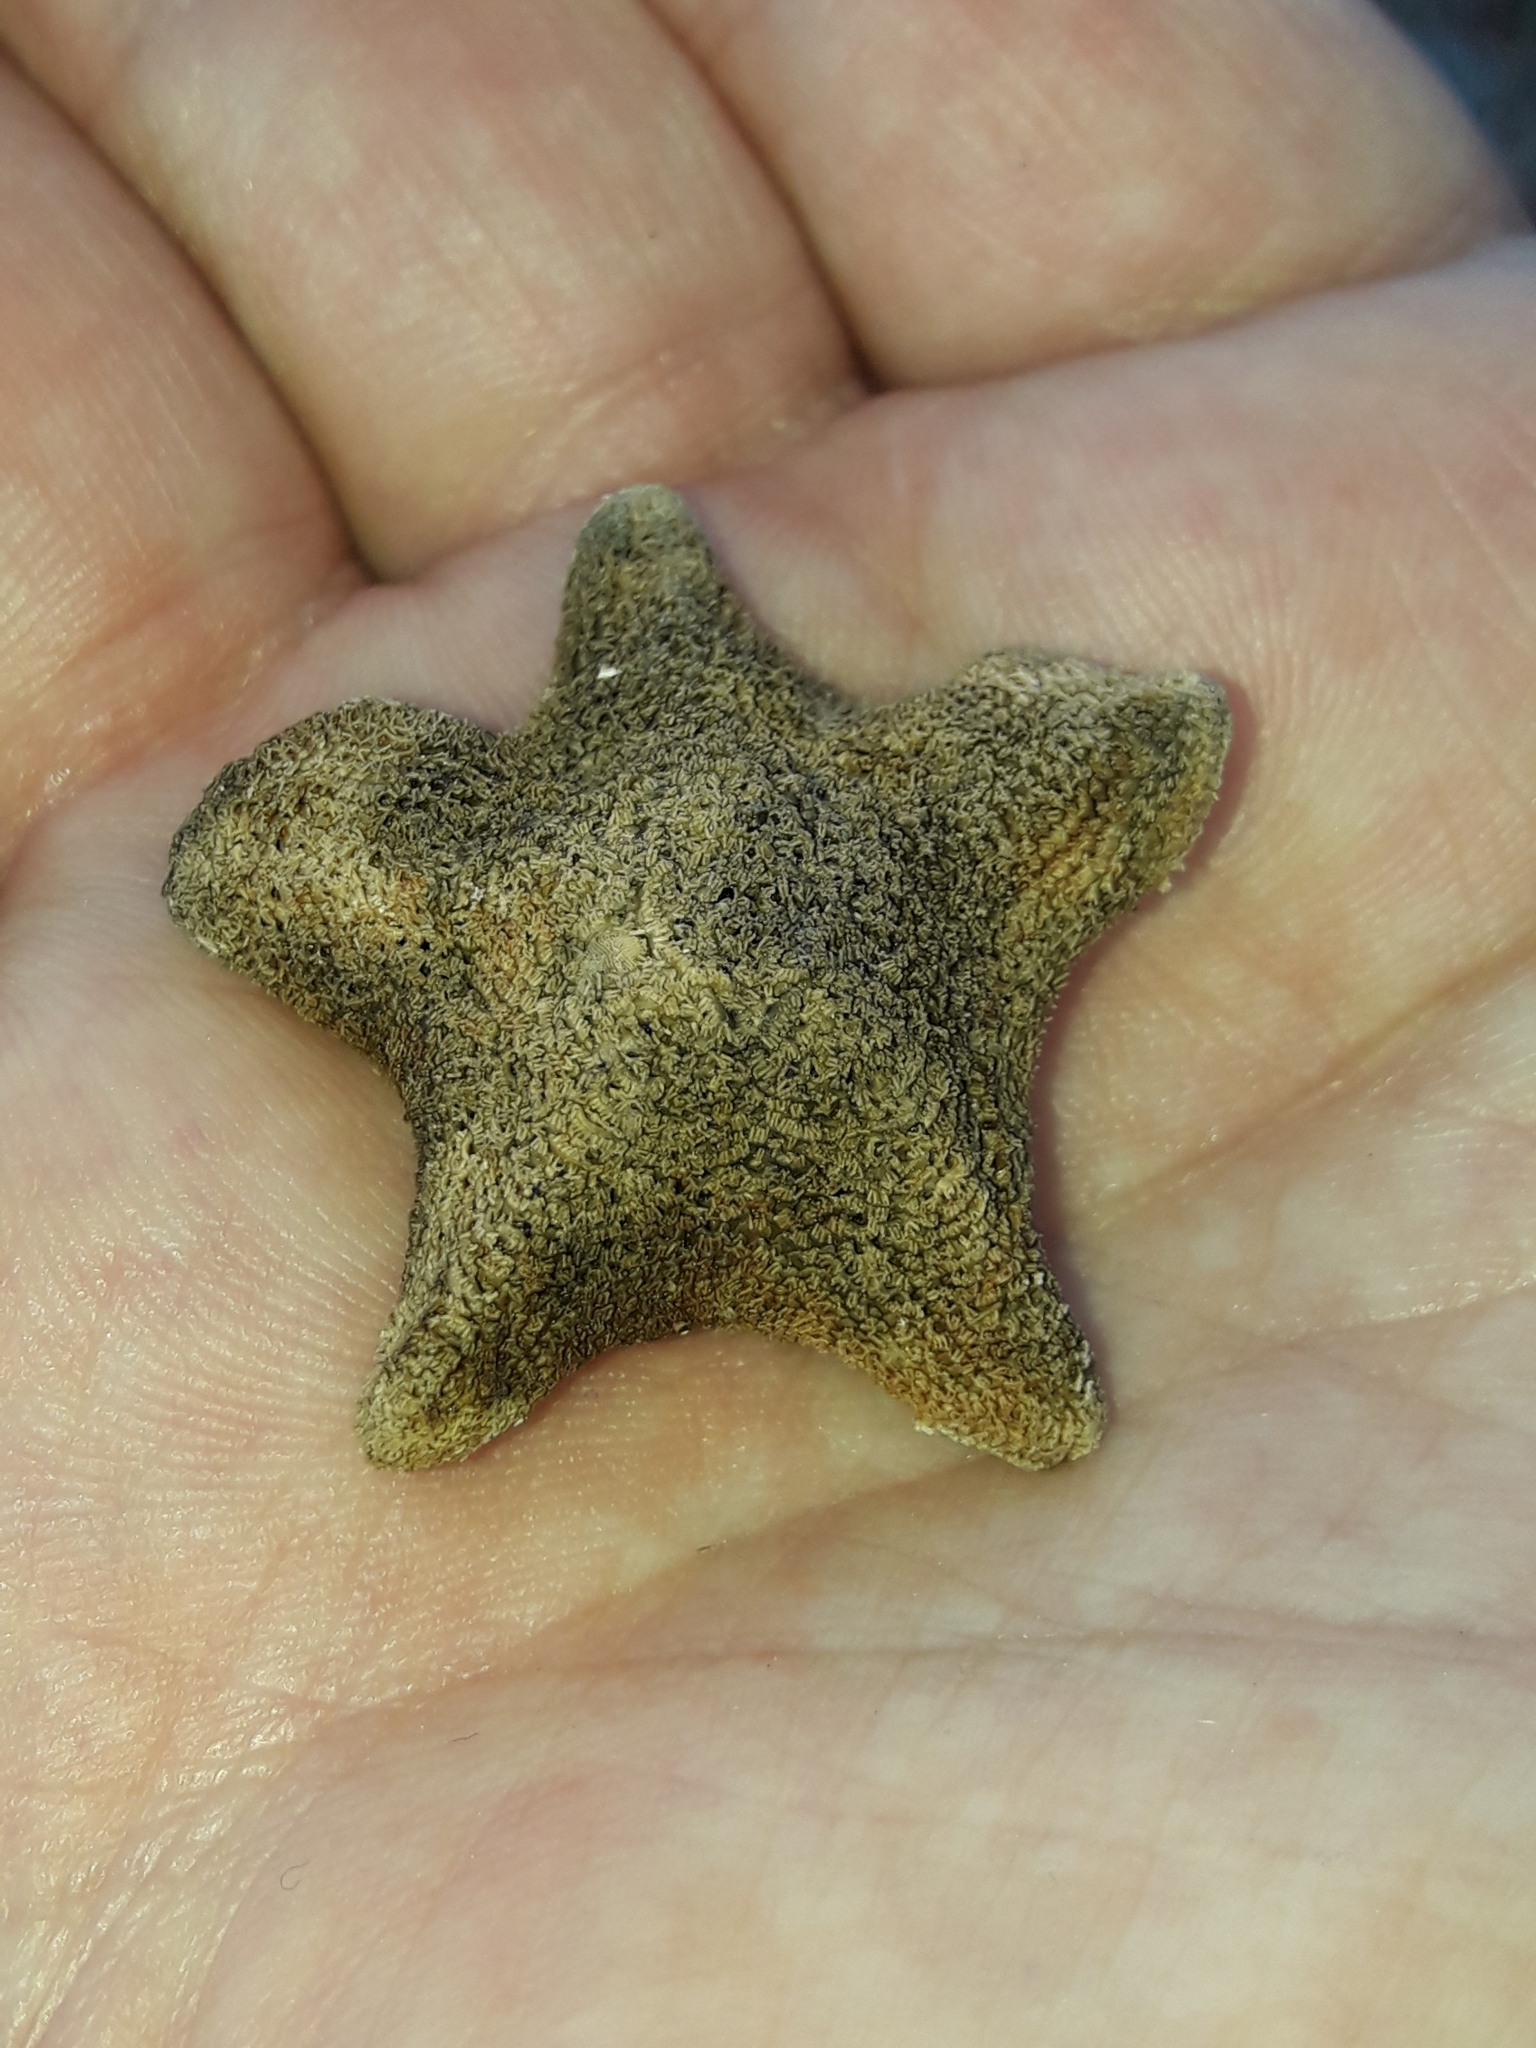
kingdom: Animalia
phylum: Echinodermata
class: Asteroidea
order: Valvatida
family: Asterinidae
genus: Patiriella
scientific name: Patiriella regularis
